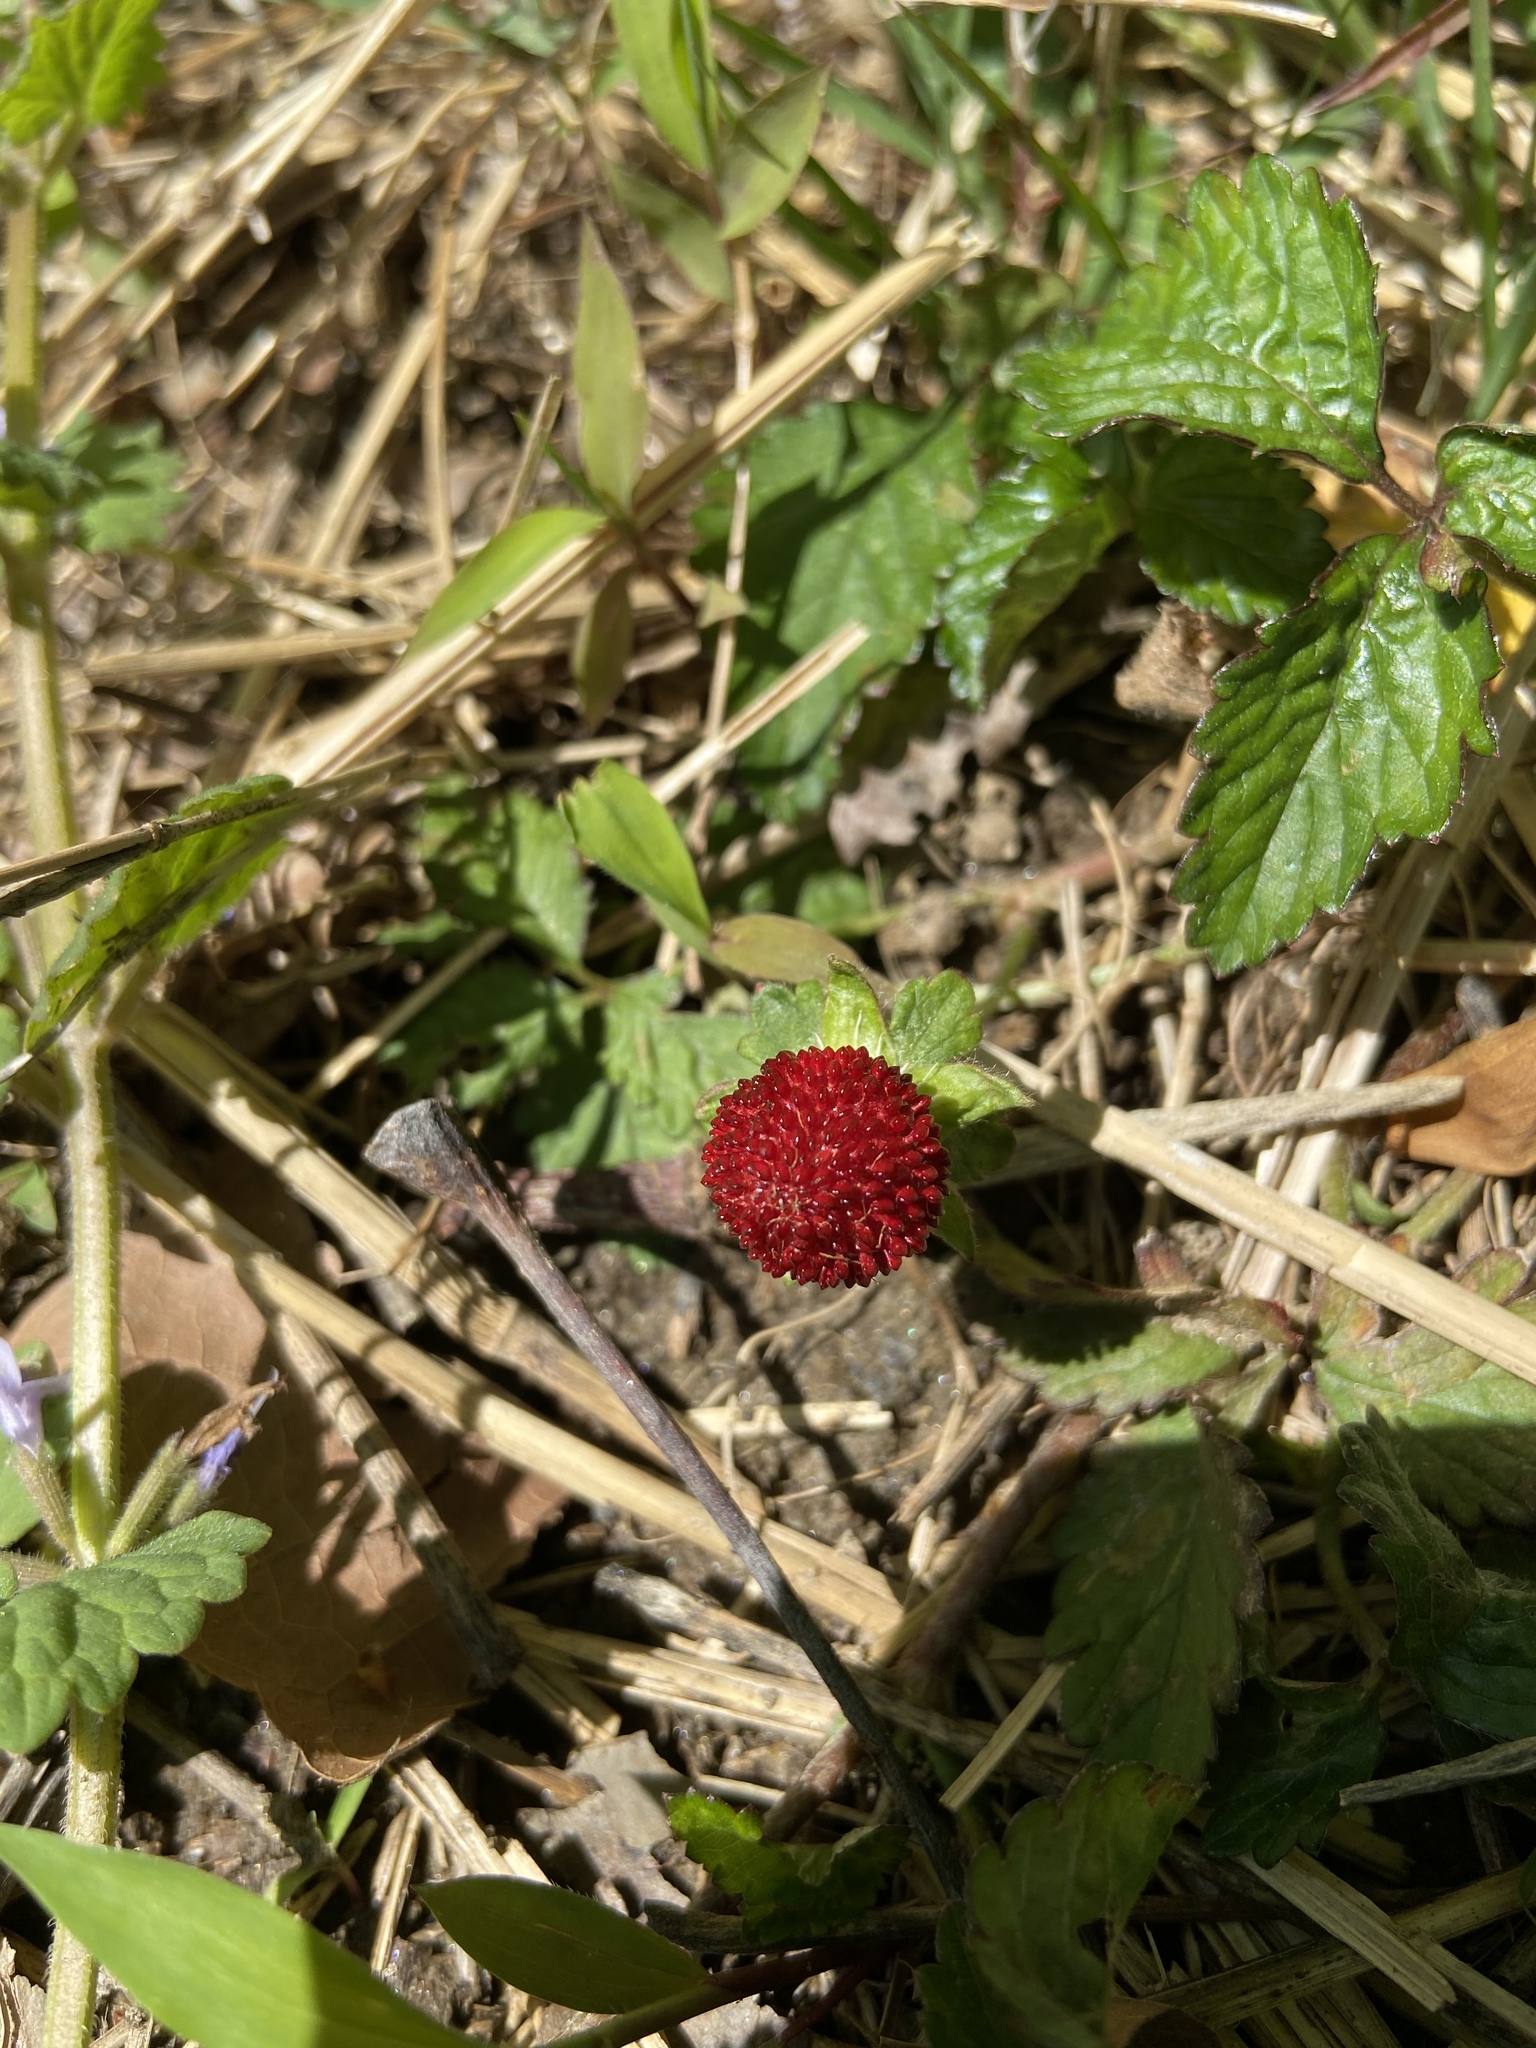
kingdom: Plantae
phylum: Tracheophyta
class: Magnoliopsida
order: Rosales
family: Rosaceae
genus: Potentilla
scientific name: Potentilla indica
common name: Yellow-flowered strawberry
